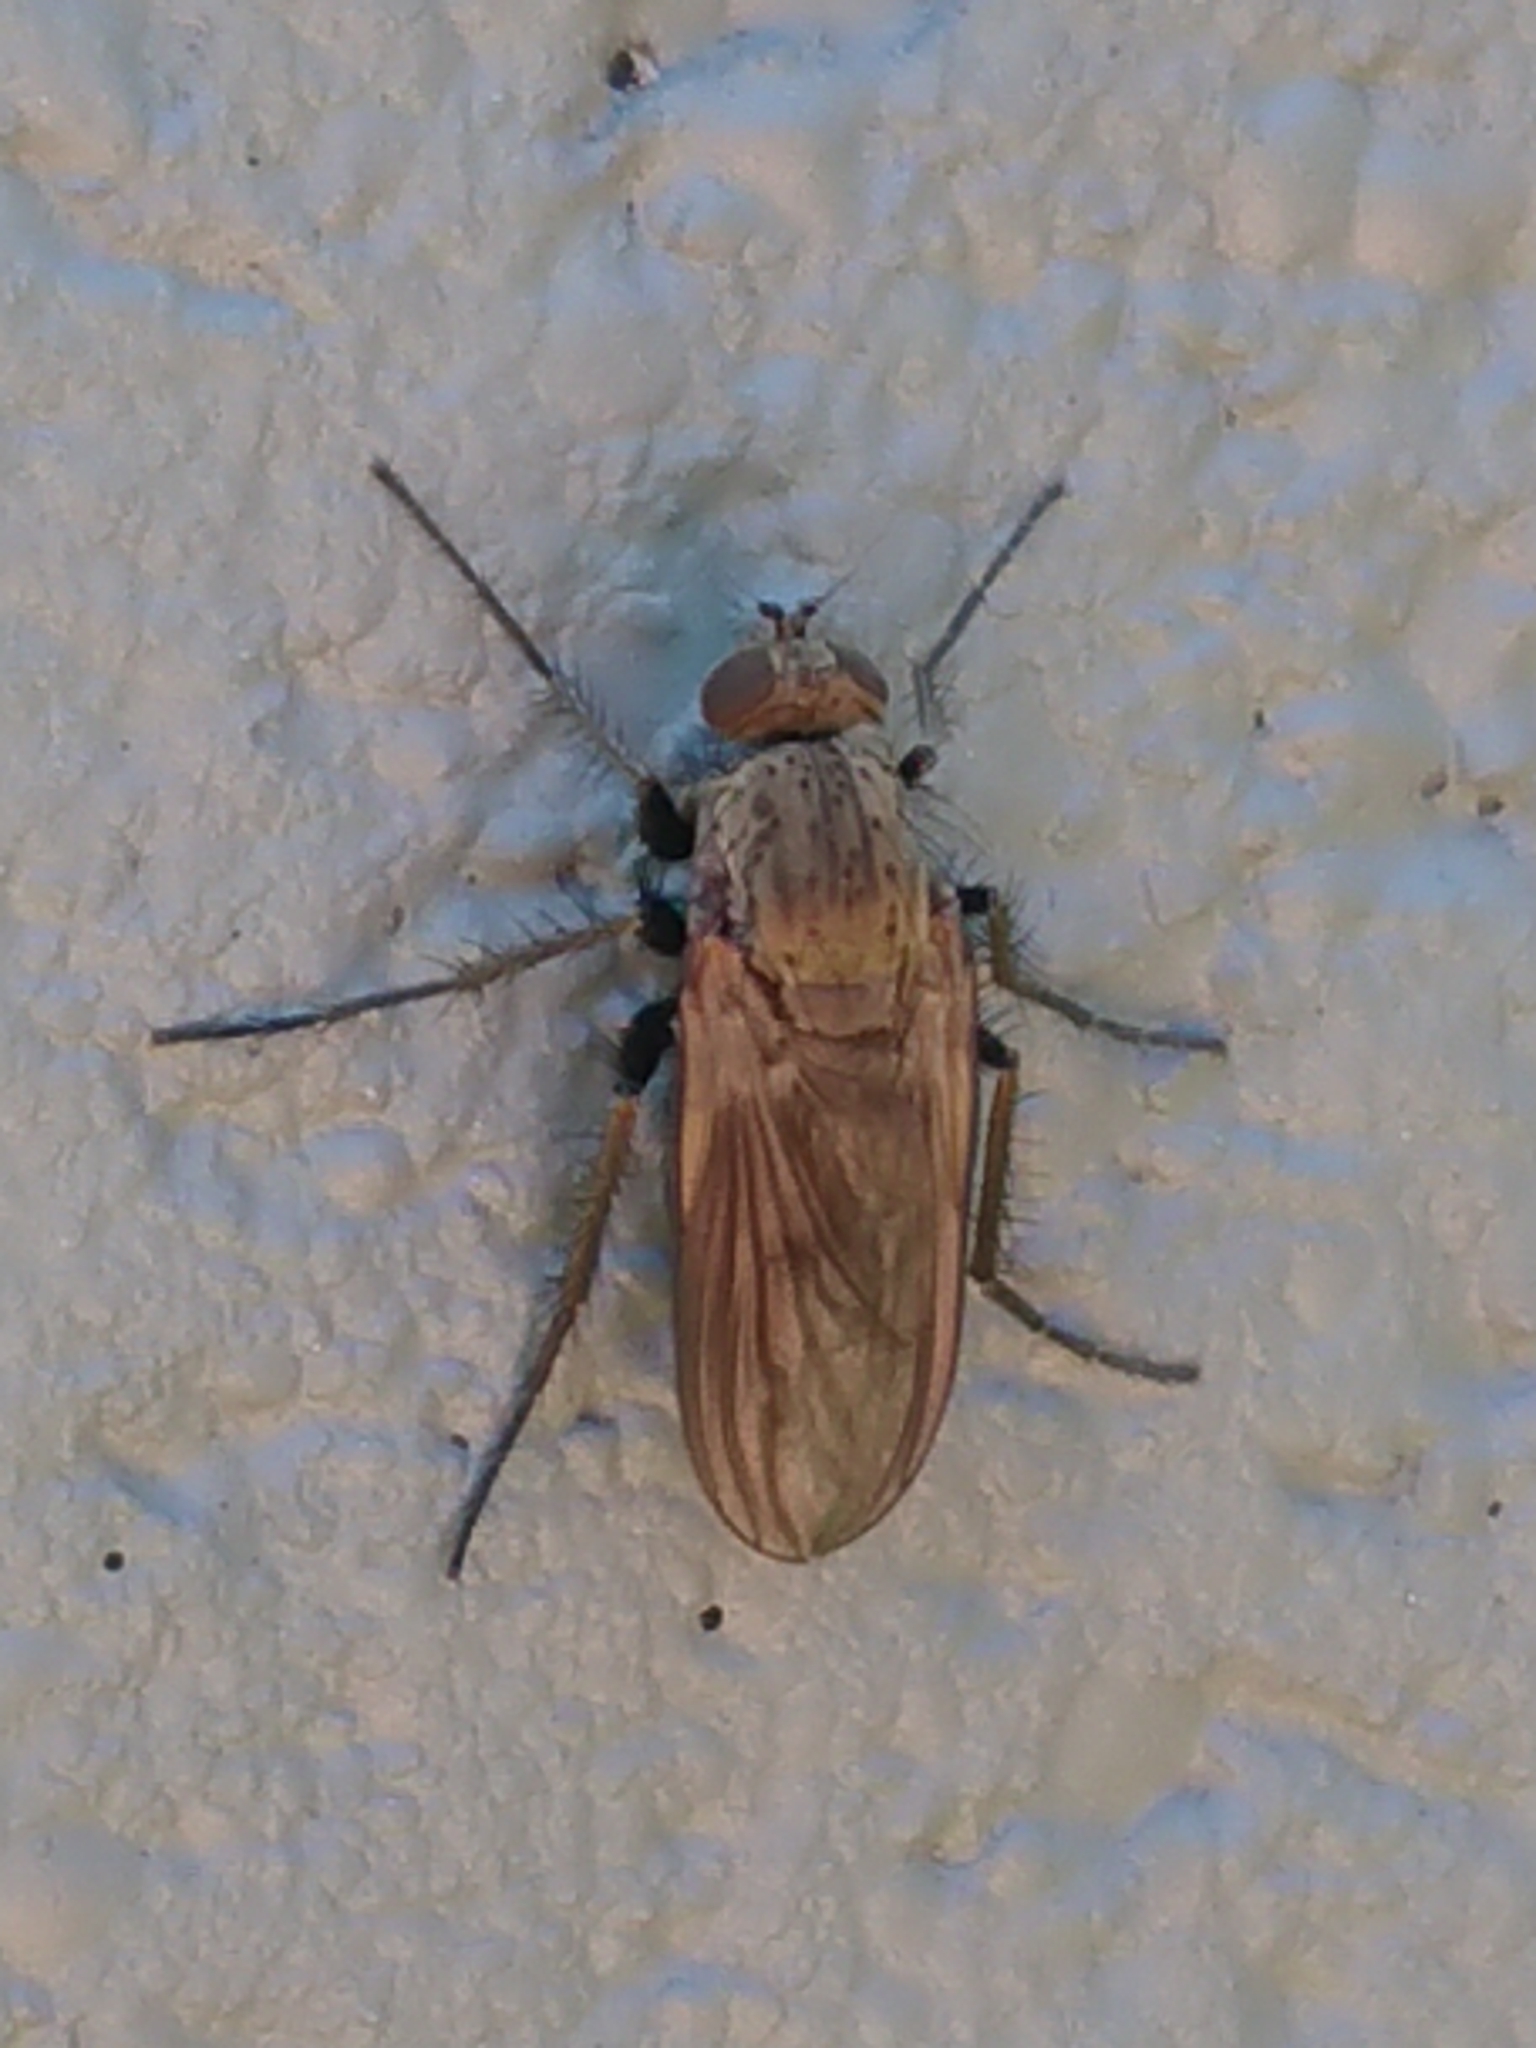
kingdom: Animalia
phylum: Arthropoda
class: Insecta
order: Diptera
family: Dolichopodidae
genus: Ostenia
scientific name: Ostenia robusta
